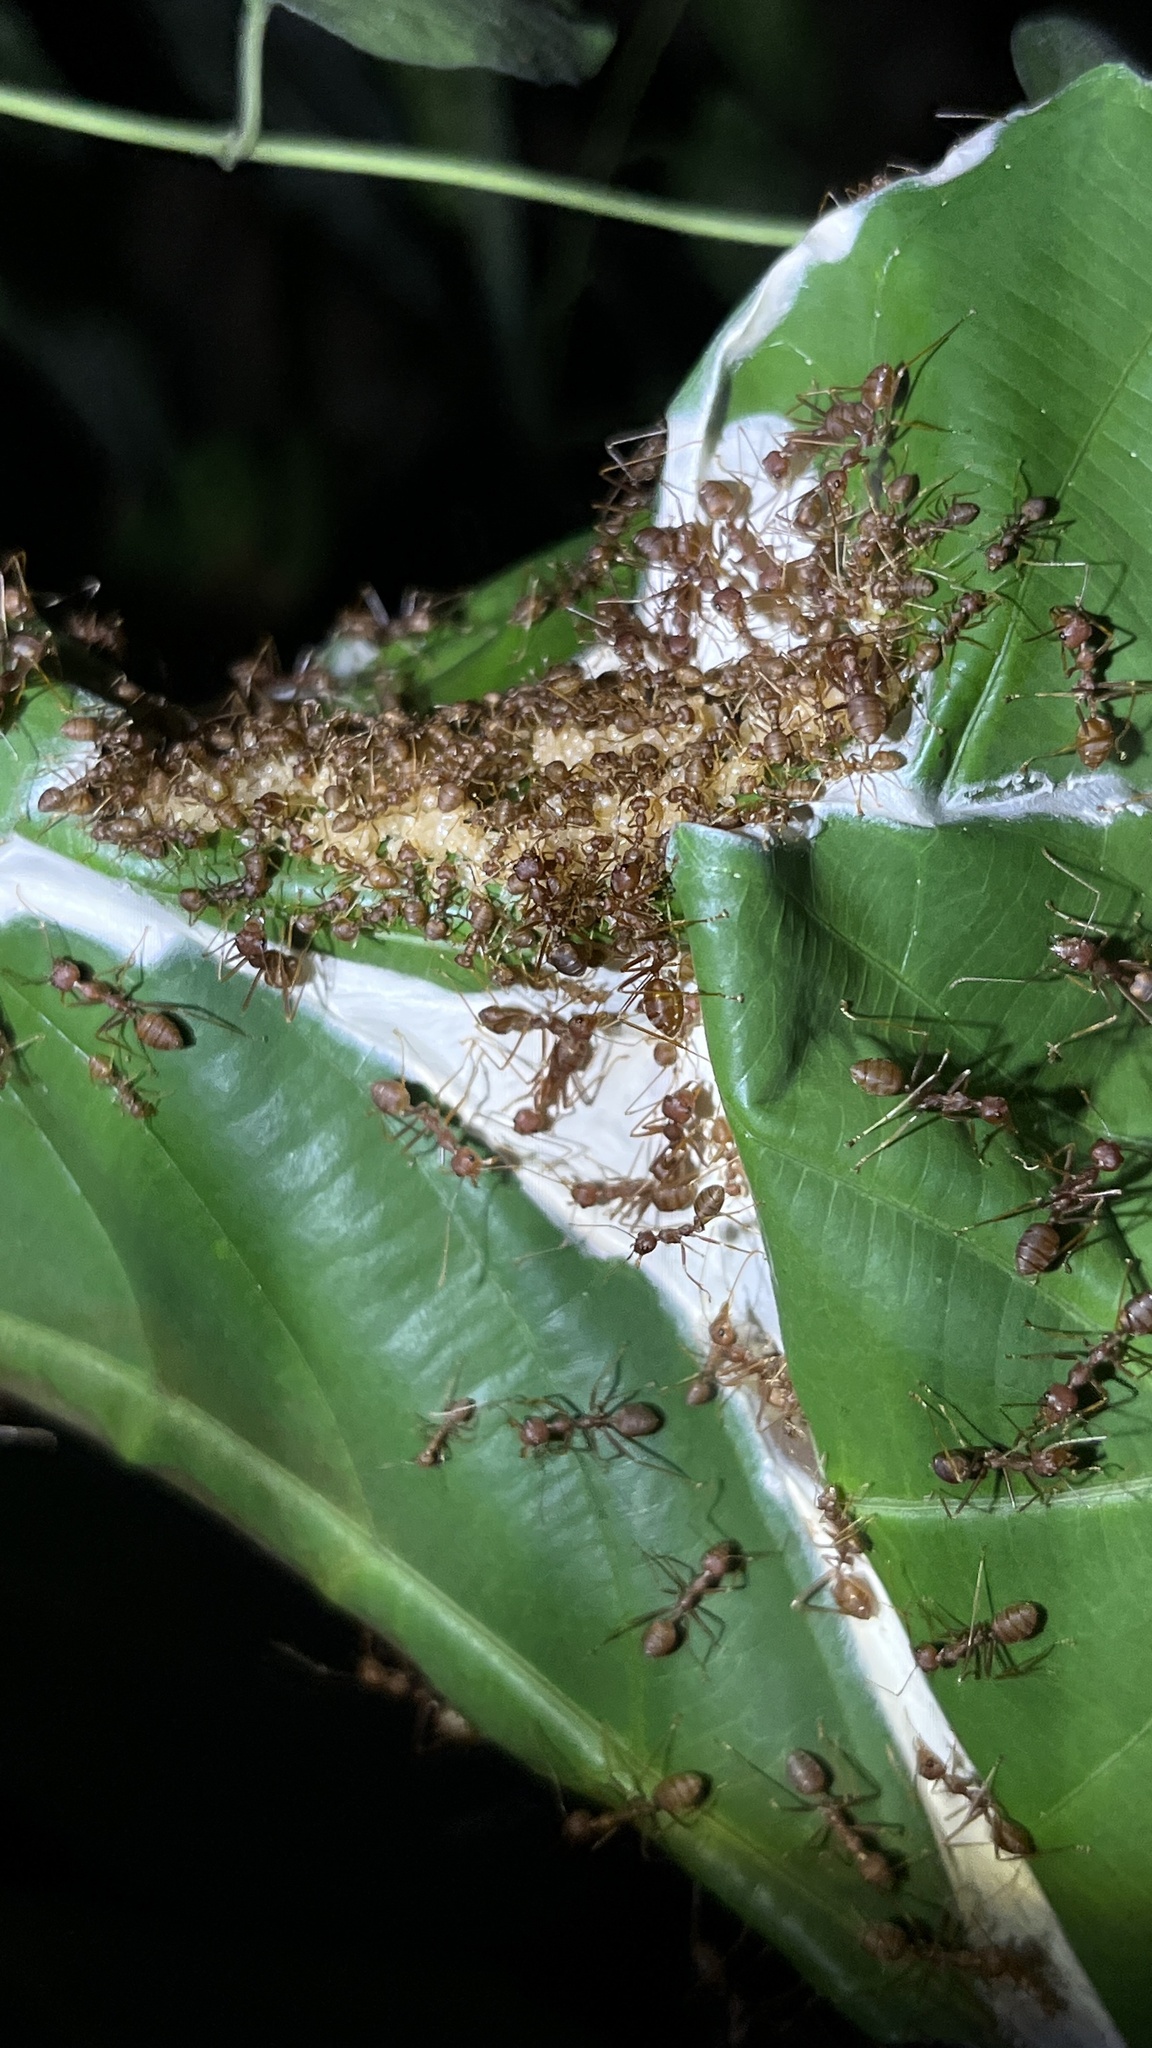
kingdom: Animalia
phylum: Arthropoda
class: Insecta
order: Hymenoptera
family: Formicidae
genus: Oecophylla
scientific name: Oecophylla smaragdina
